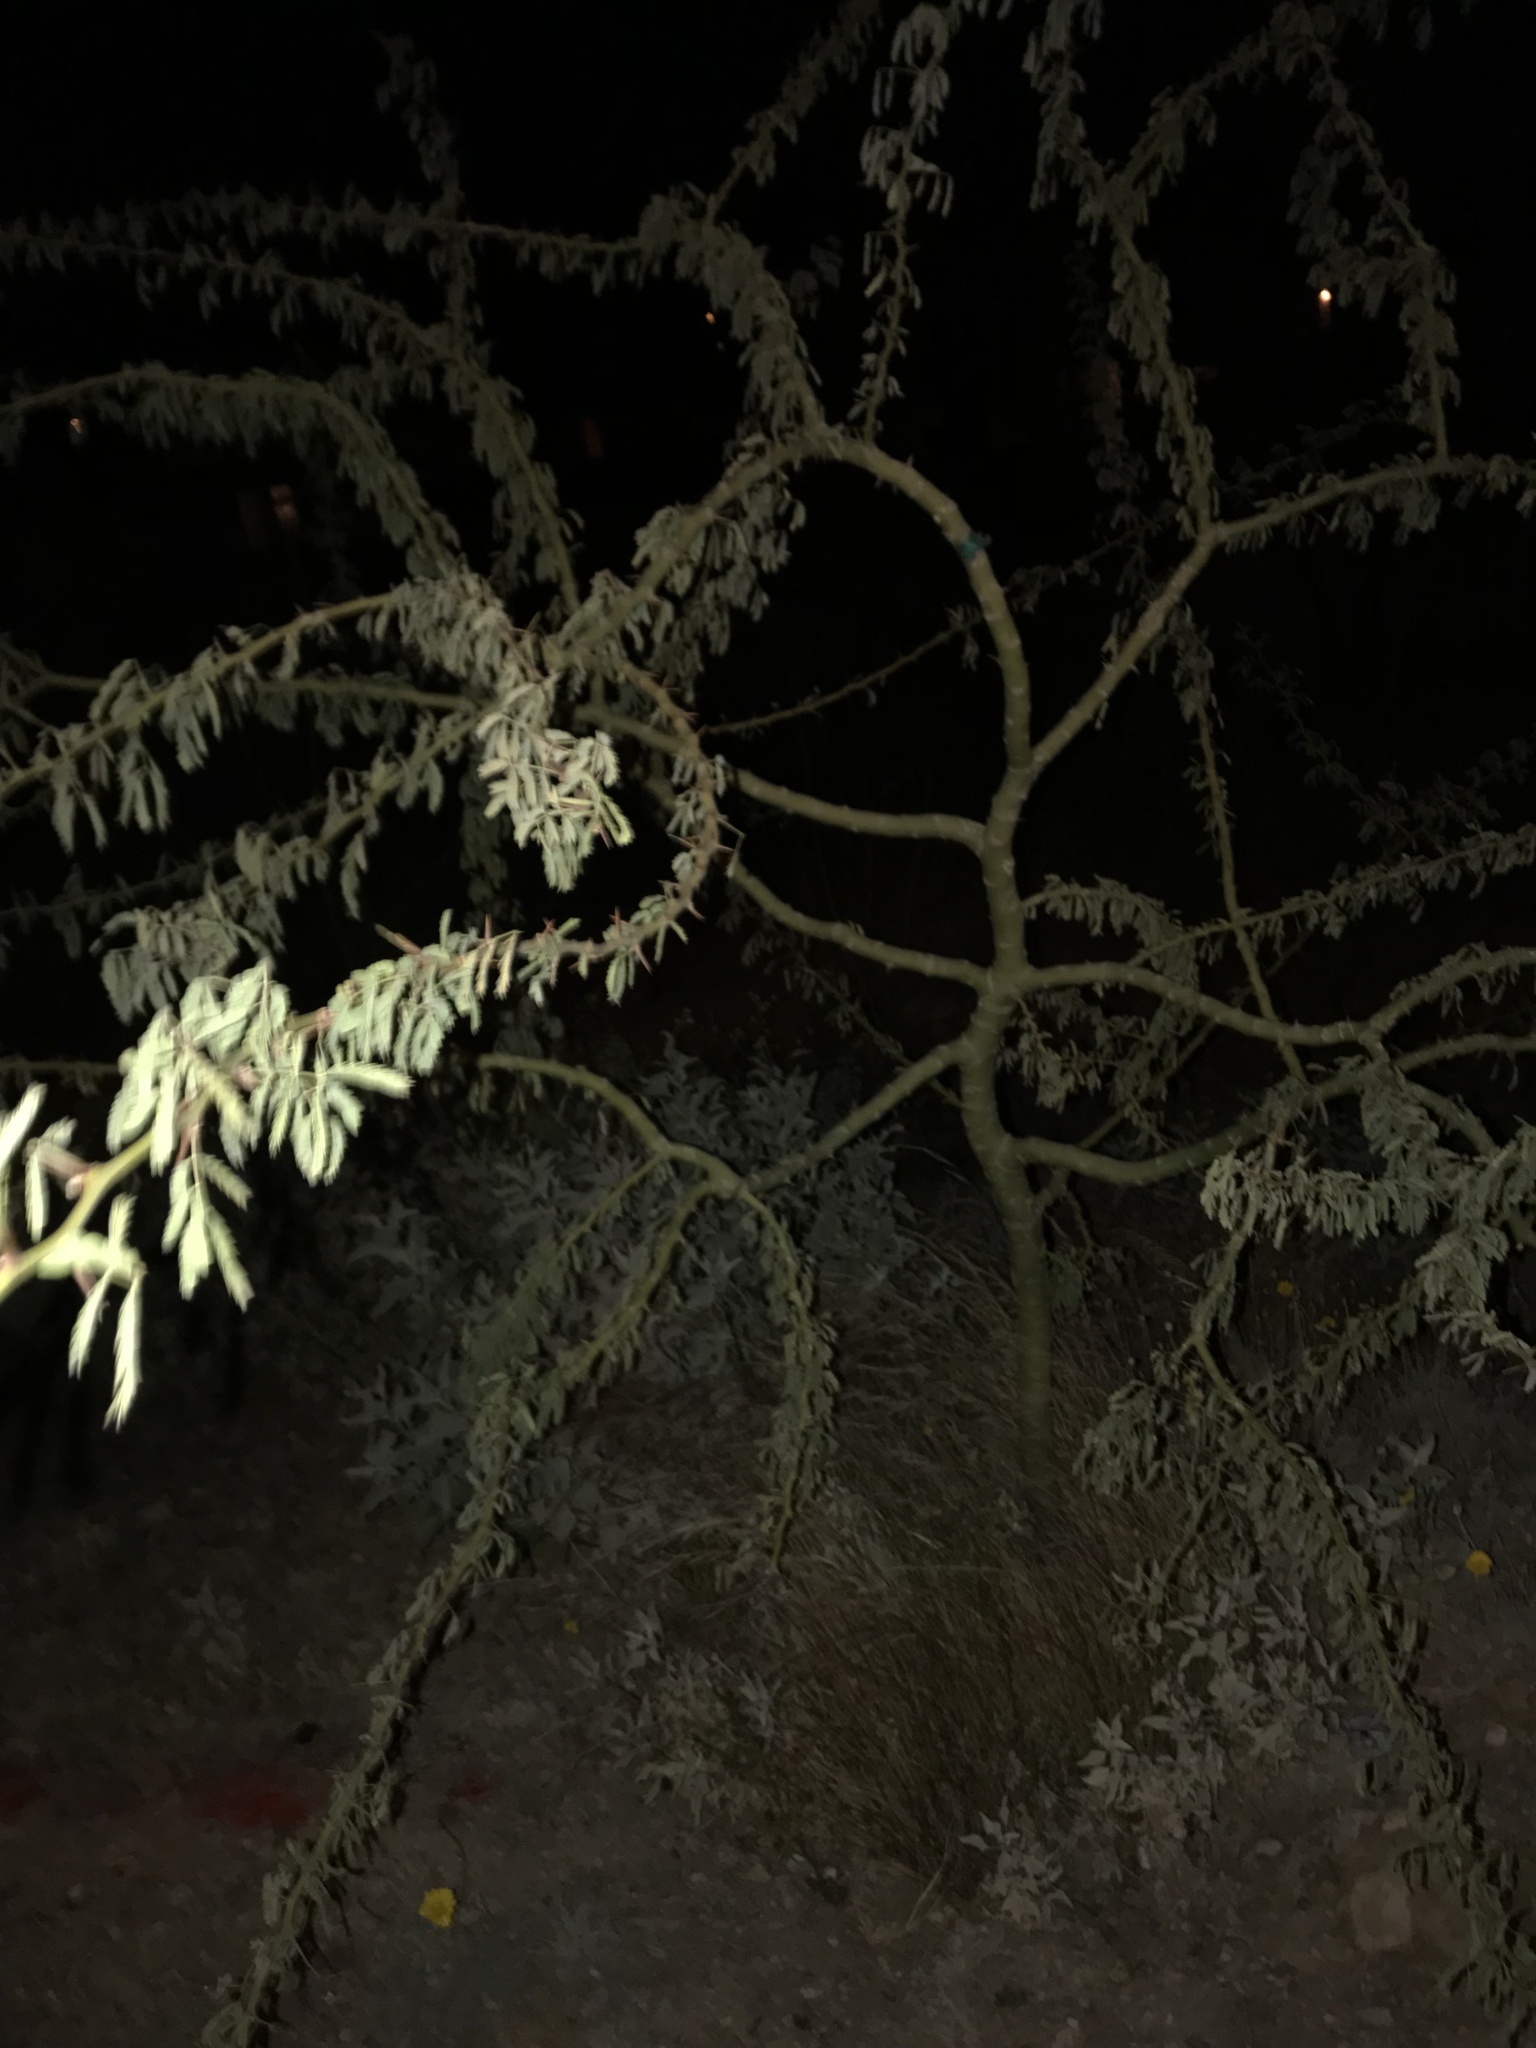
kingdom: Plantae
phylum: Tracheophyta
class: Magnoliopsida
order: Fabales
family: Fabaceae
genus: Parkinsonia
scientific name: Parkinsonia praecox
